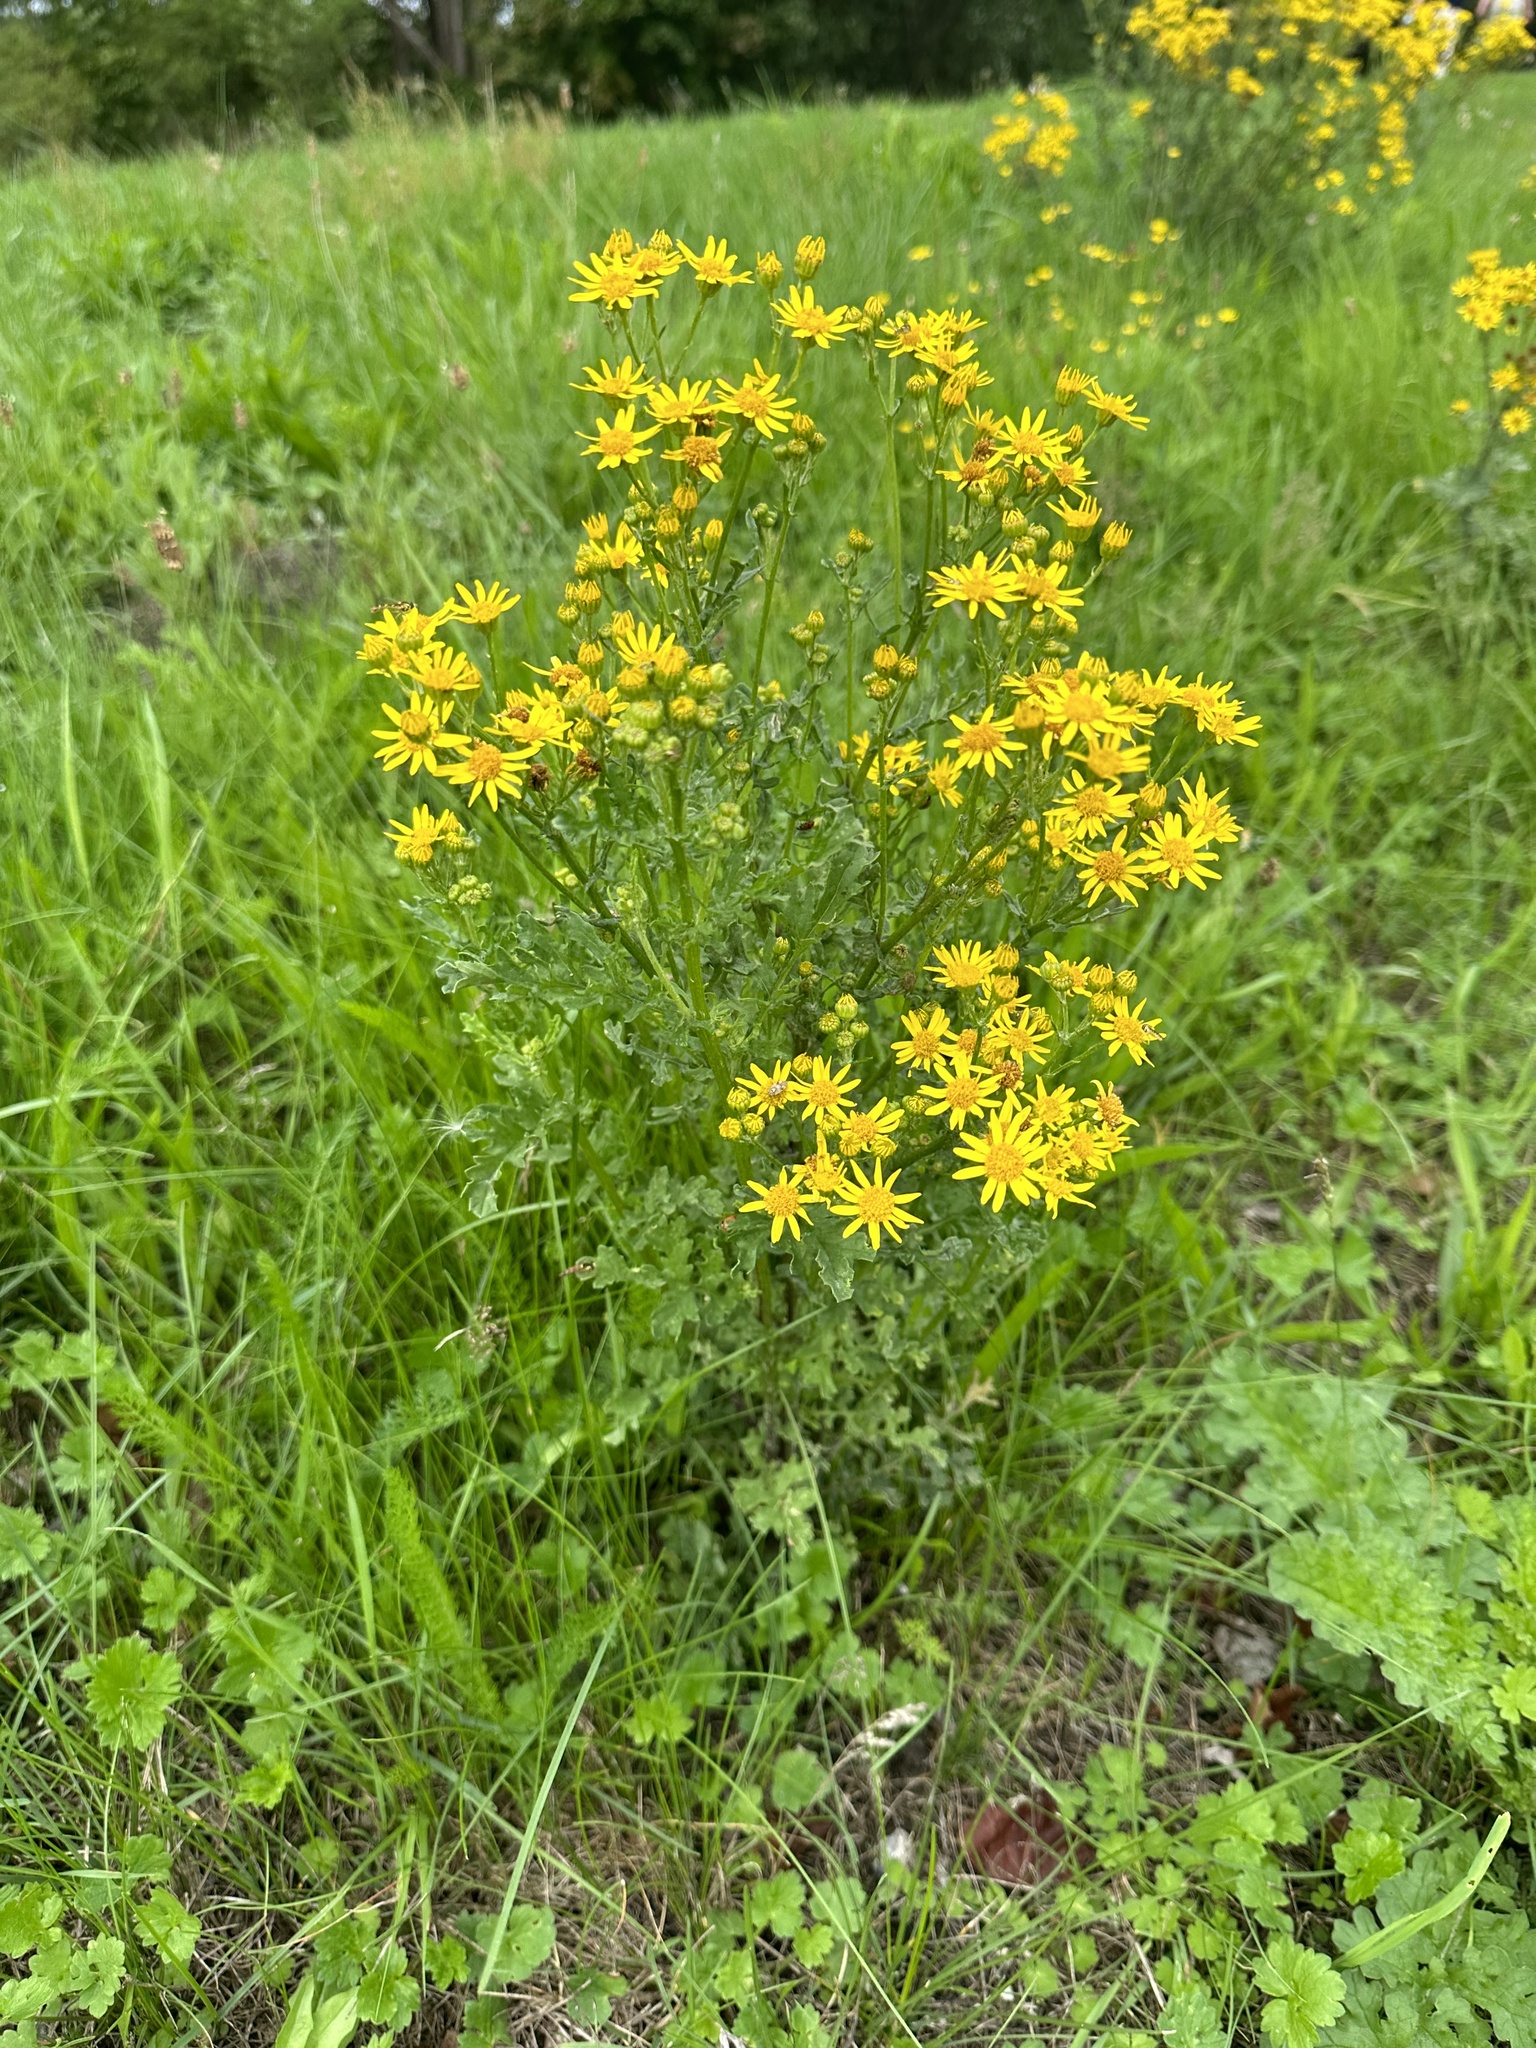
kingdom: Plantae
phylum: Tracheophyta
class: Magnoliopsida
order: Asterales
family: Asteraceae
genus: Jacobaea
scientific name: Jacobaea vulgaris
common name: Stinking willie
